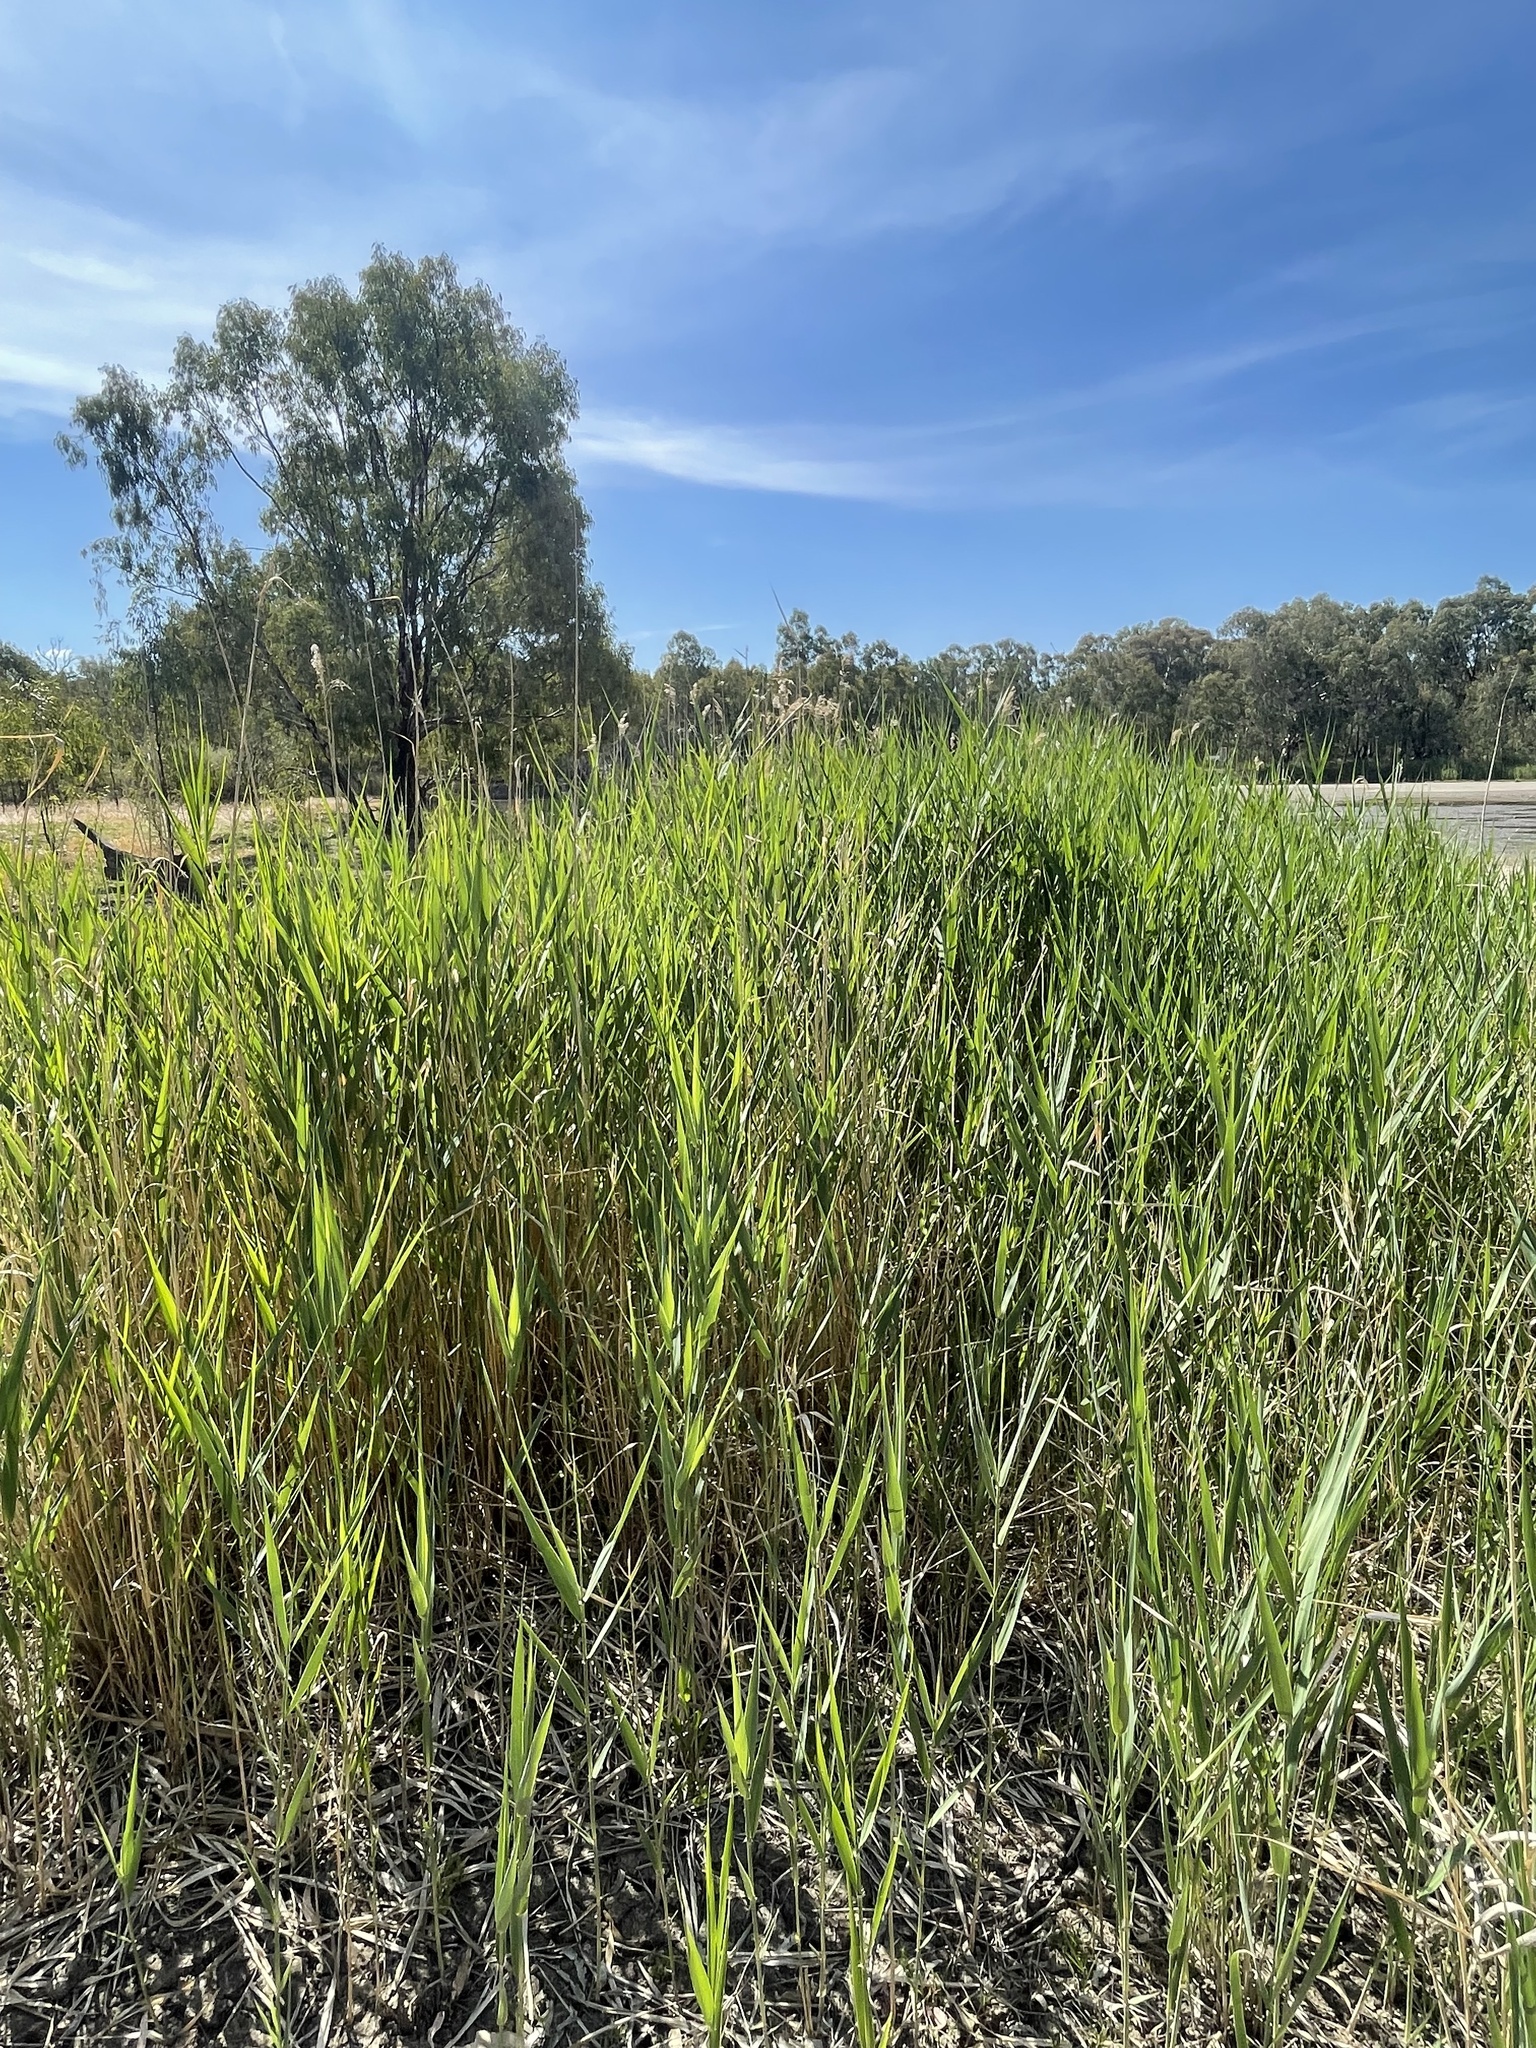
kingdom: Plantae
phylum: Tracheophyta
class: Liliopsida
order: Poales
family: Poaceae
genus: Phragmites
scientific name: Phragmites australis
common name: Common reed
